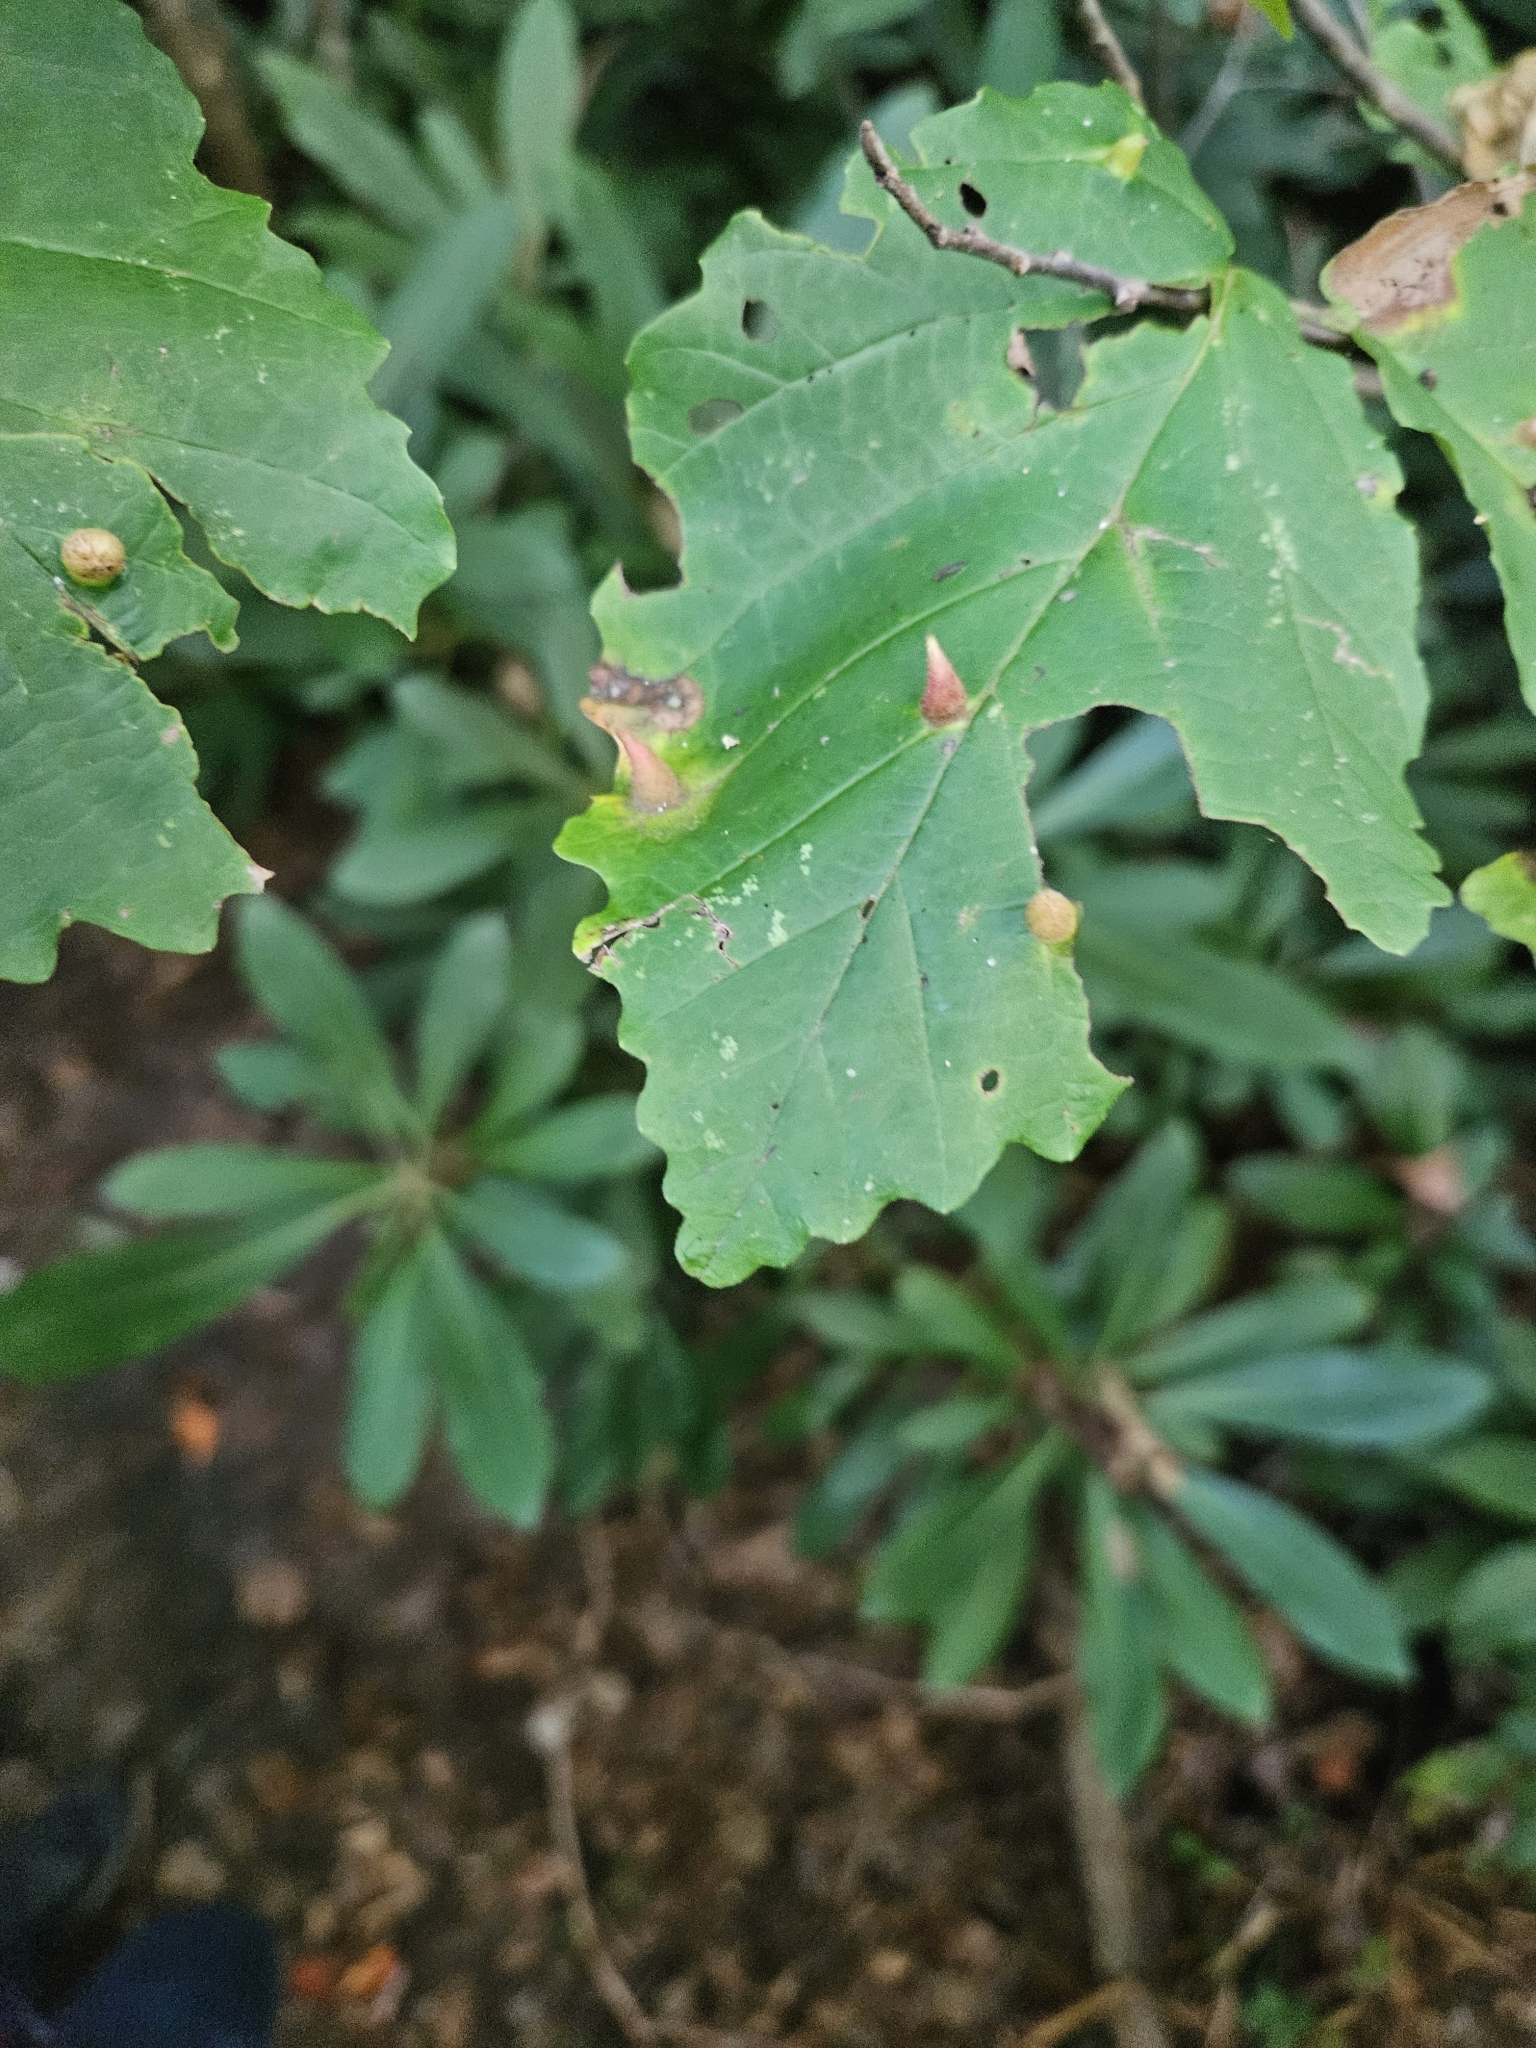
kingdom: Animalia
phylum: Arthropoda
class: Insecta
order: Hemiptera
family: Aphididae
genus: Hormaphis
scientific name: Hormaphis hamamelidis
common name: Witch-hazel cone gall aphid
